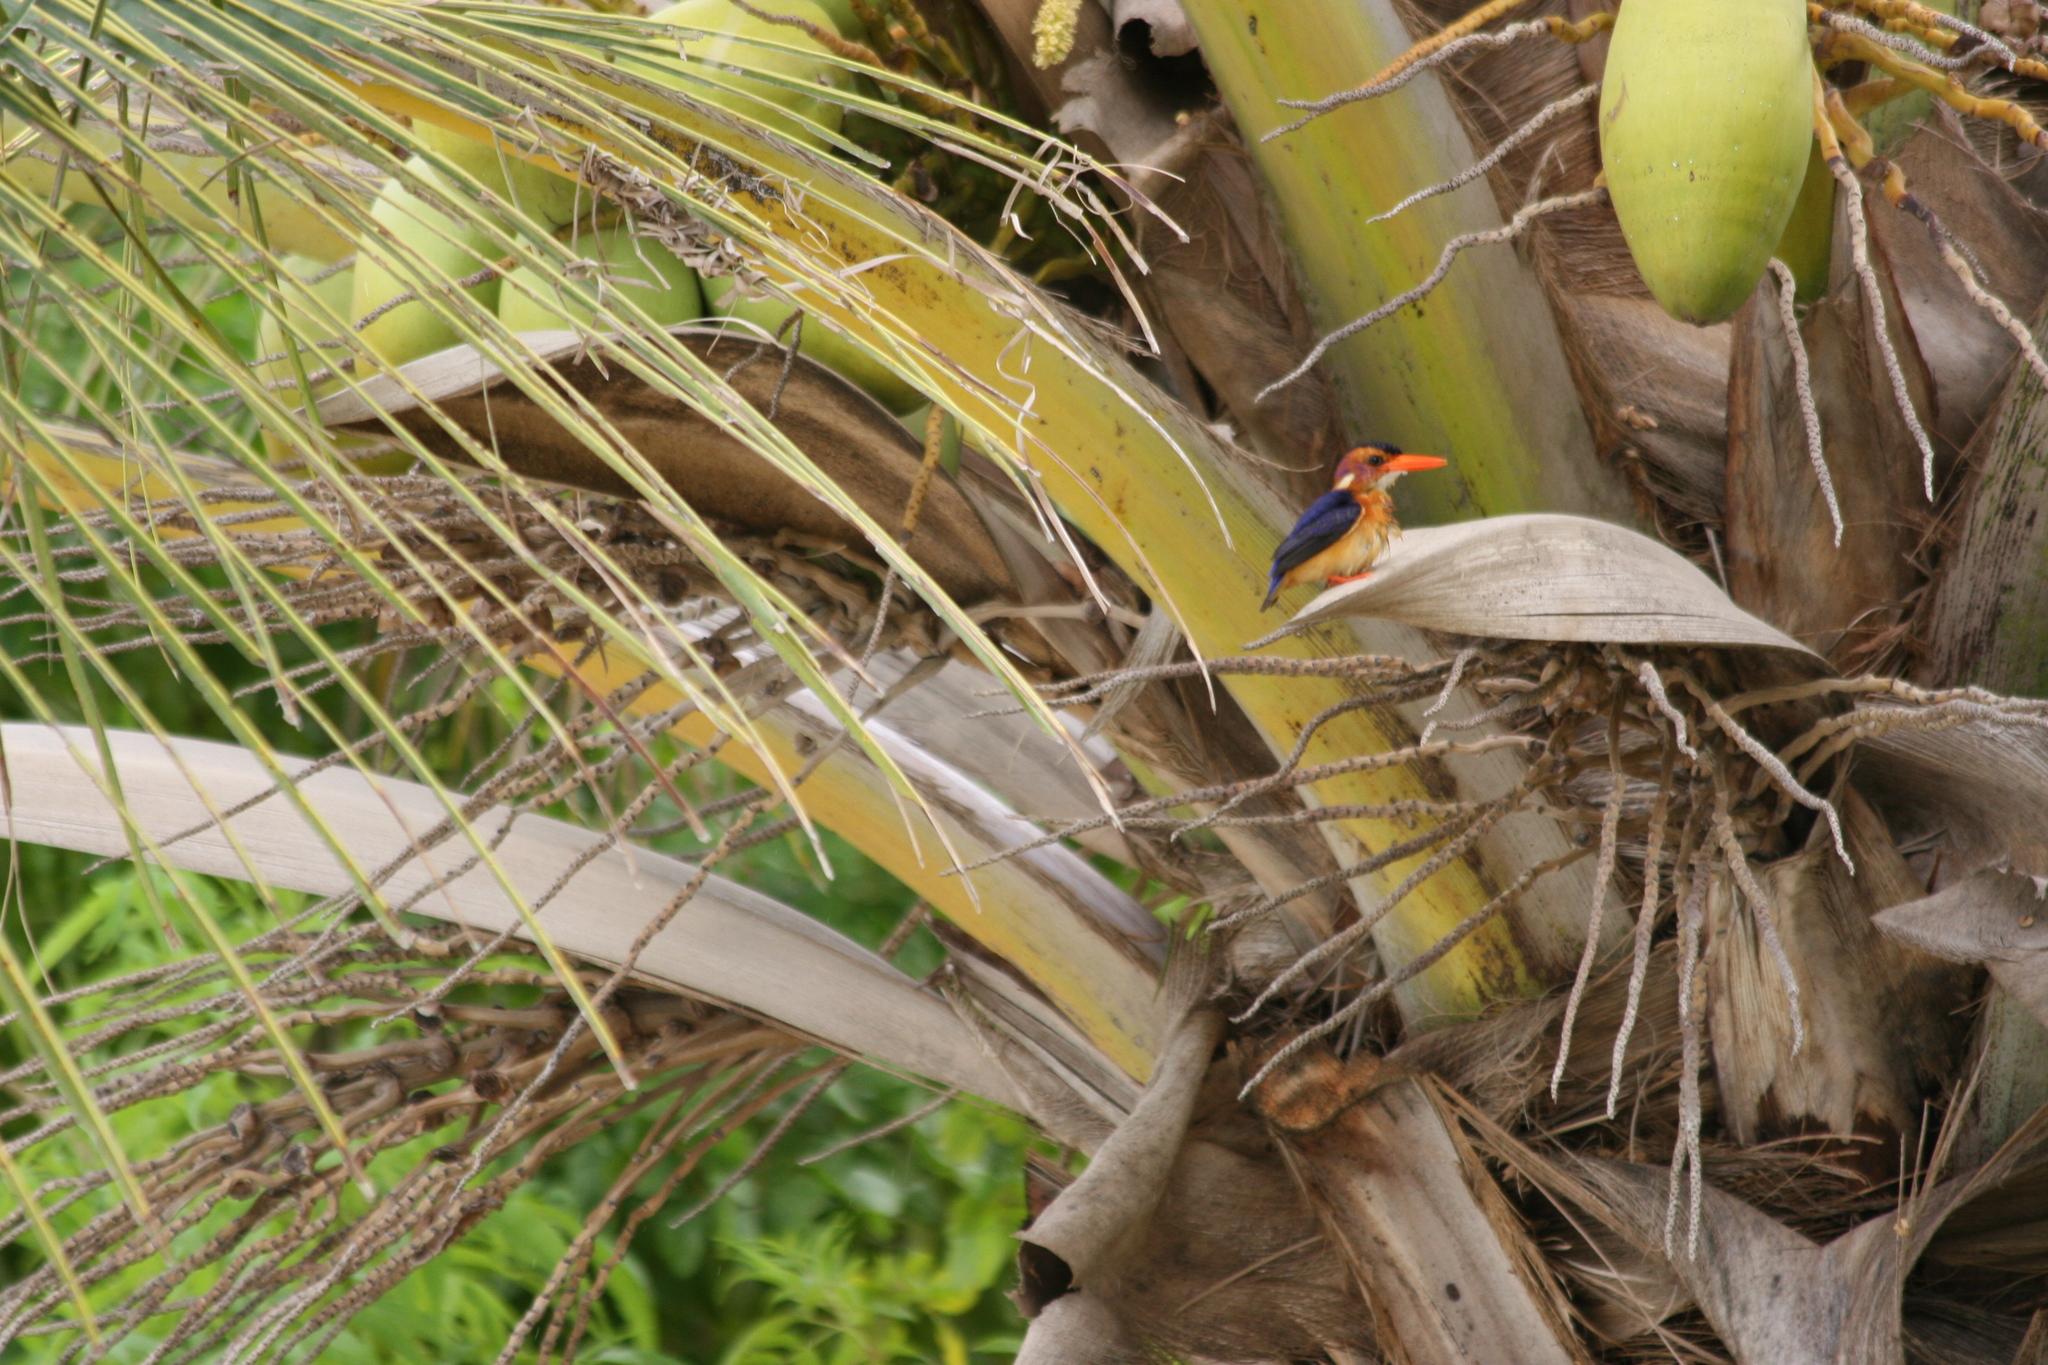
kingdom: Animalia
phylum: Chordata
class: Aves
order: Coraciiformes
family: Alcedinidae
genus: Ispidina
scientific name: Ispidina picta
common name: African pygmy-kingfisher
